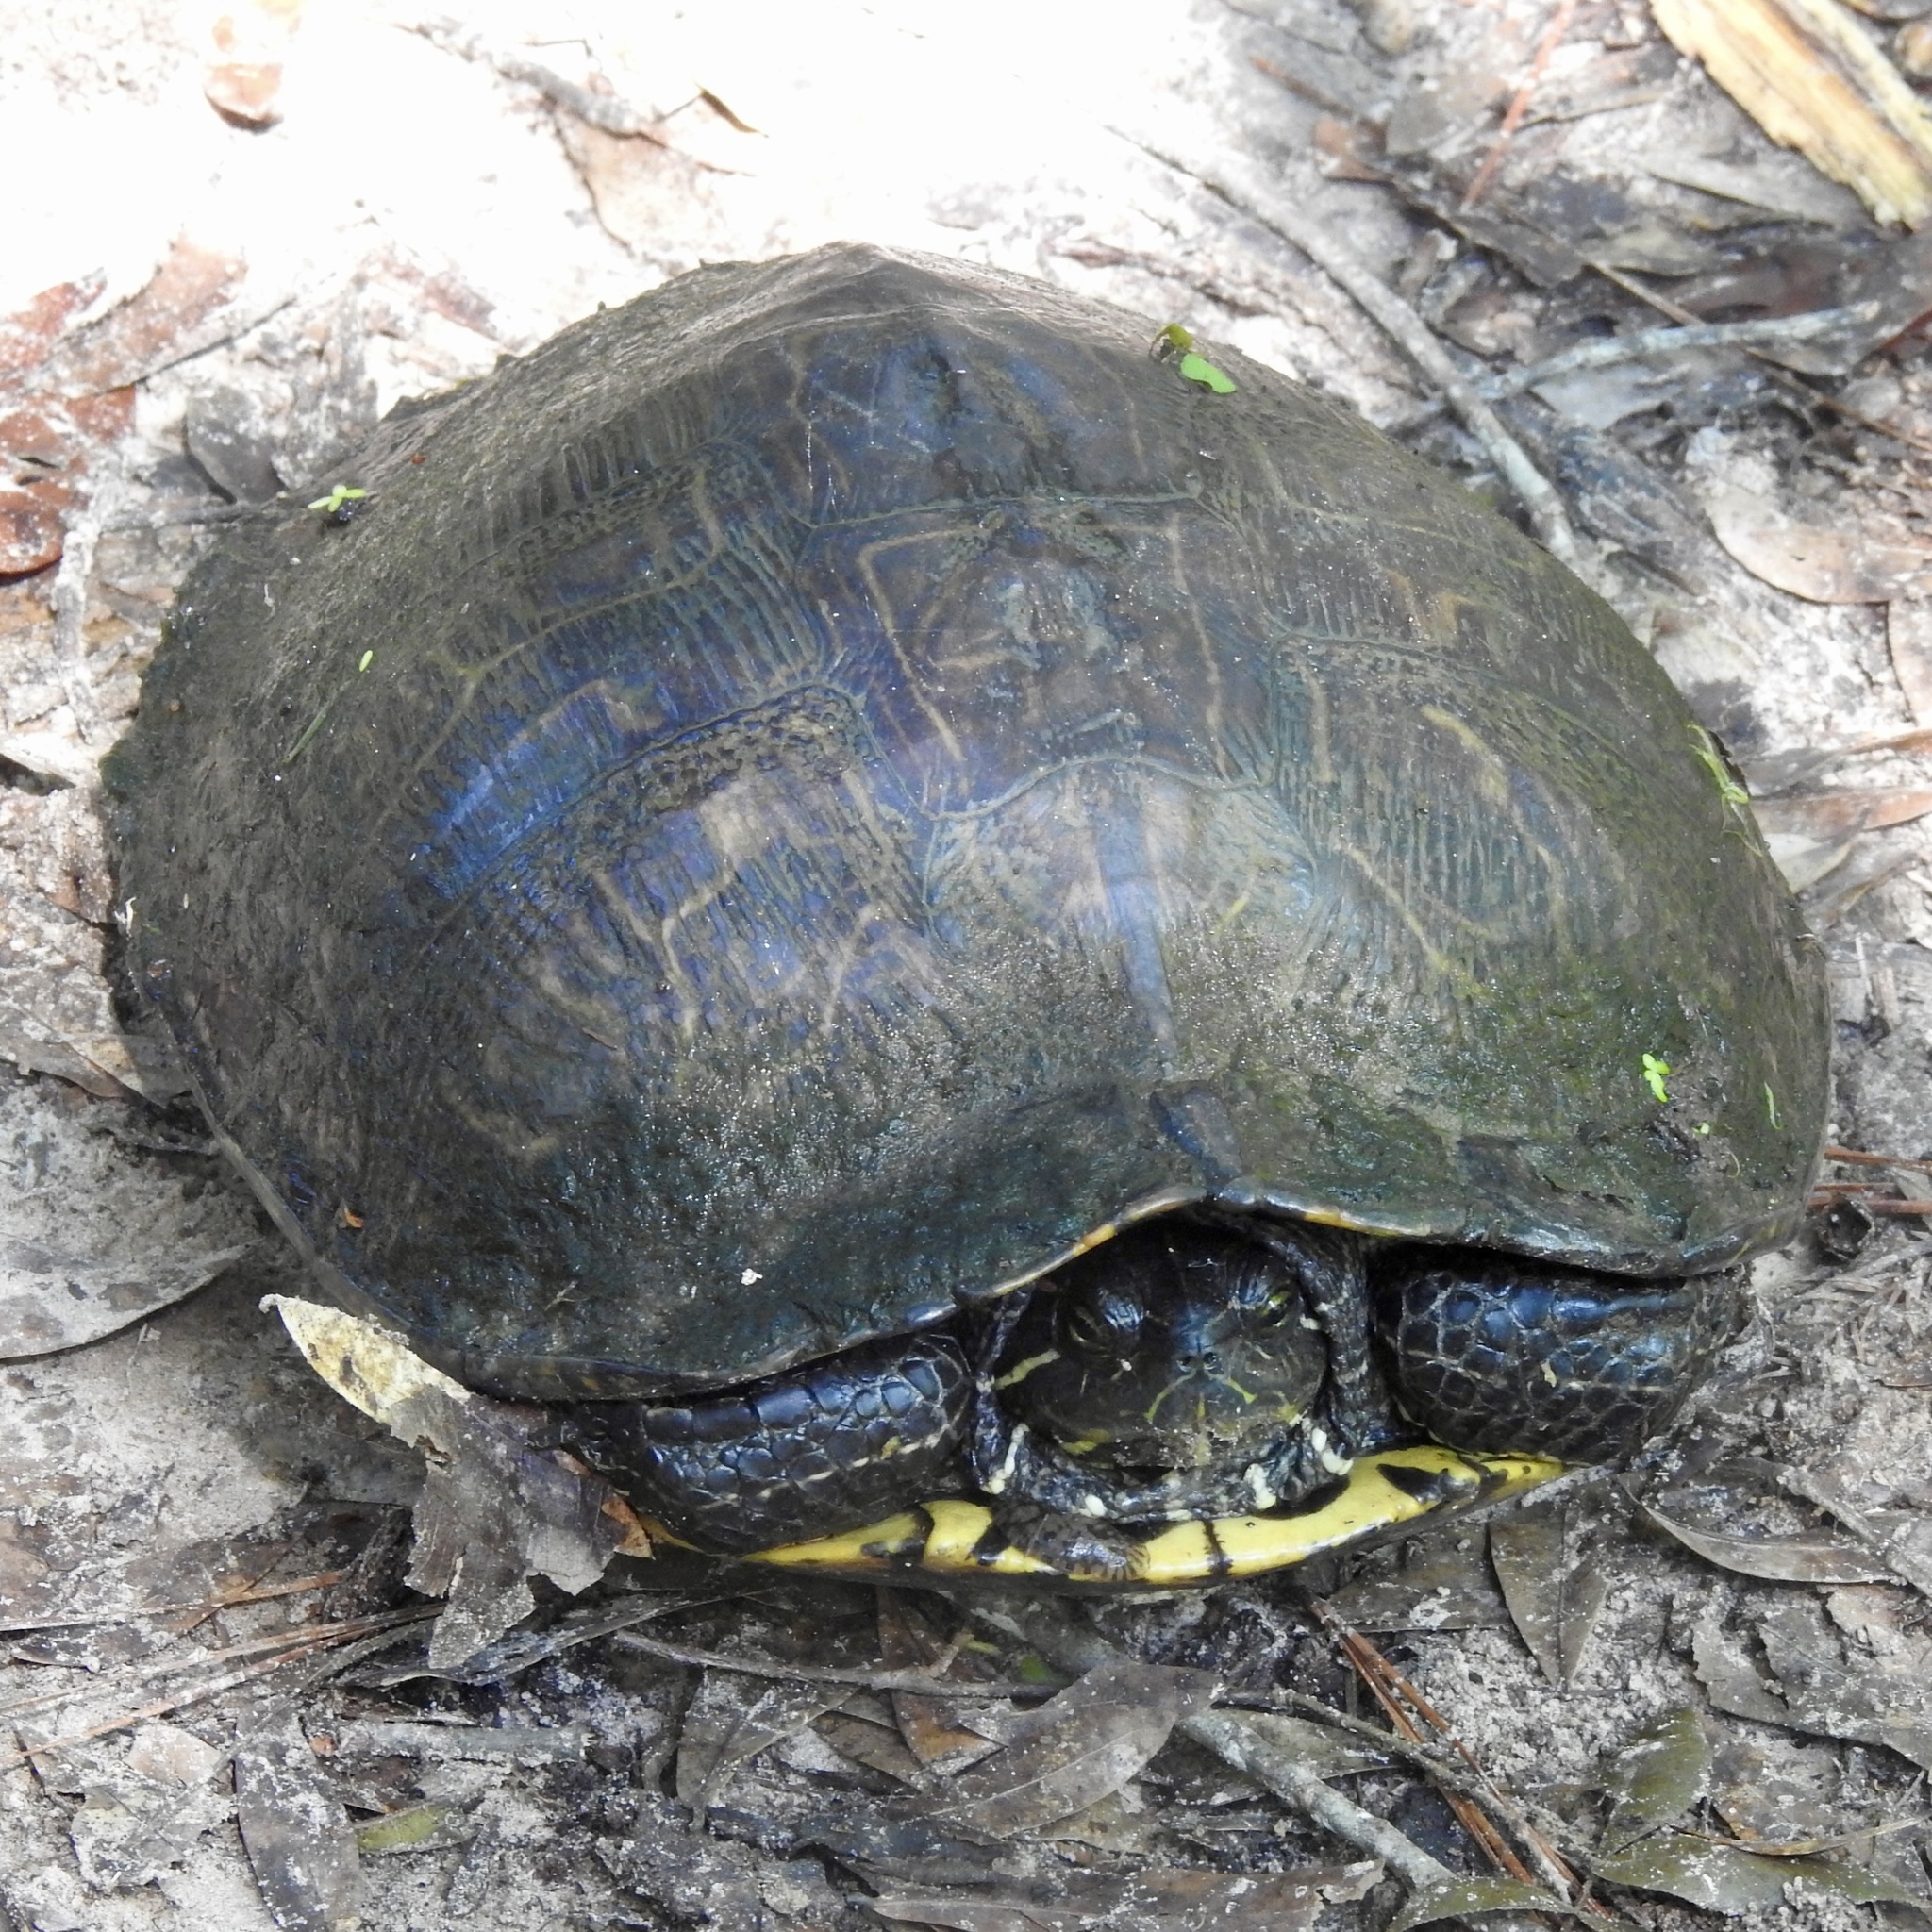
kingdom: Animalia
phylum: Chordata
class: Testudines
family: Emydidae
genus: Trachemys
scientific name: Trachemys scripta
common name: Slider
